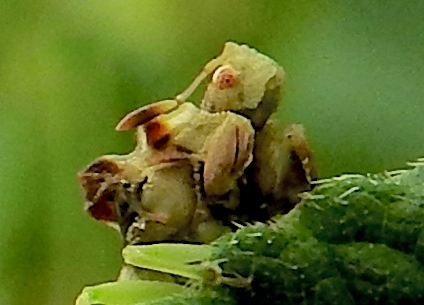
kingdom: Animalia
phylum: Arthropoda
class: Insecta
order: Hemiptera
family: Reduviidae
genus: Phymata
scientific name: Phymata
